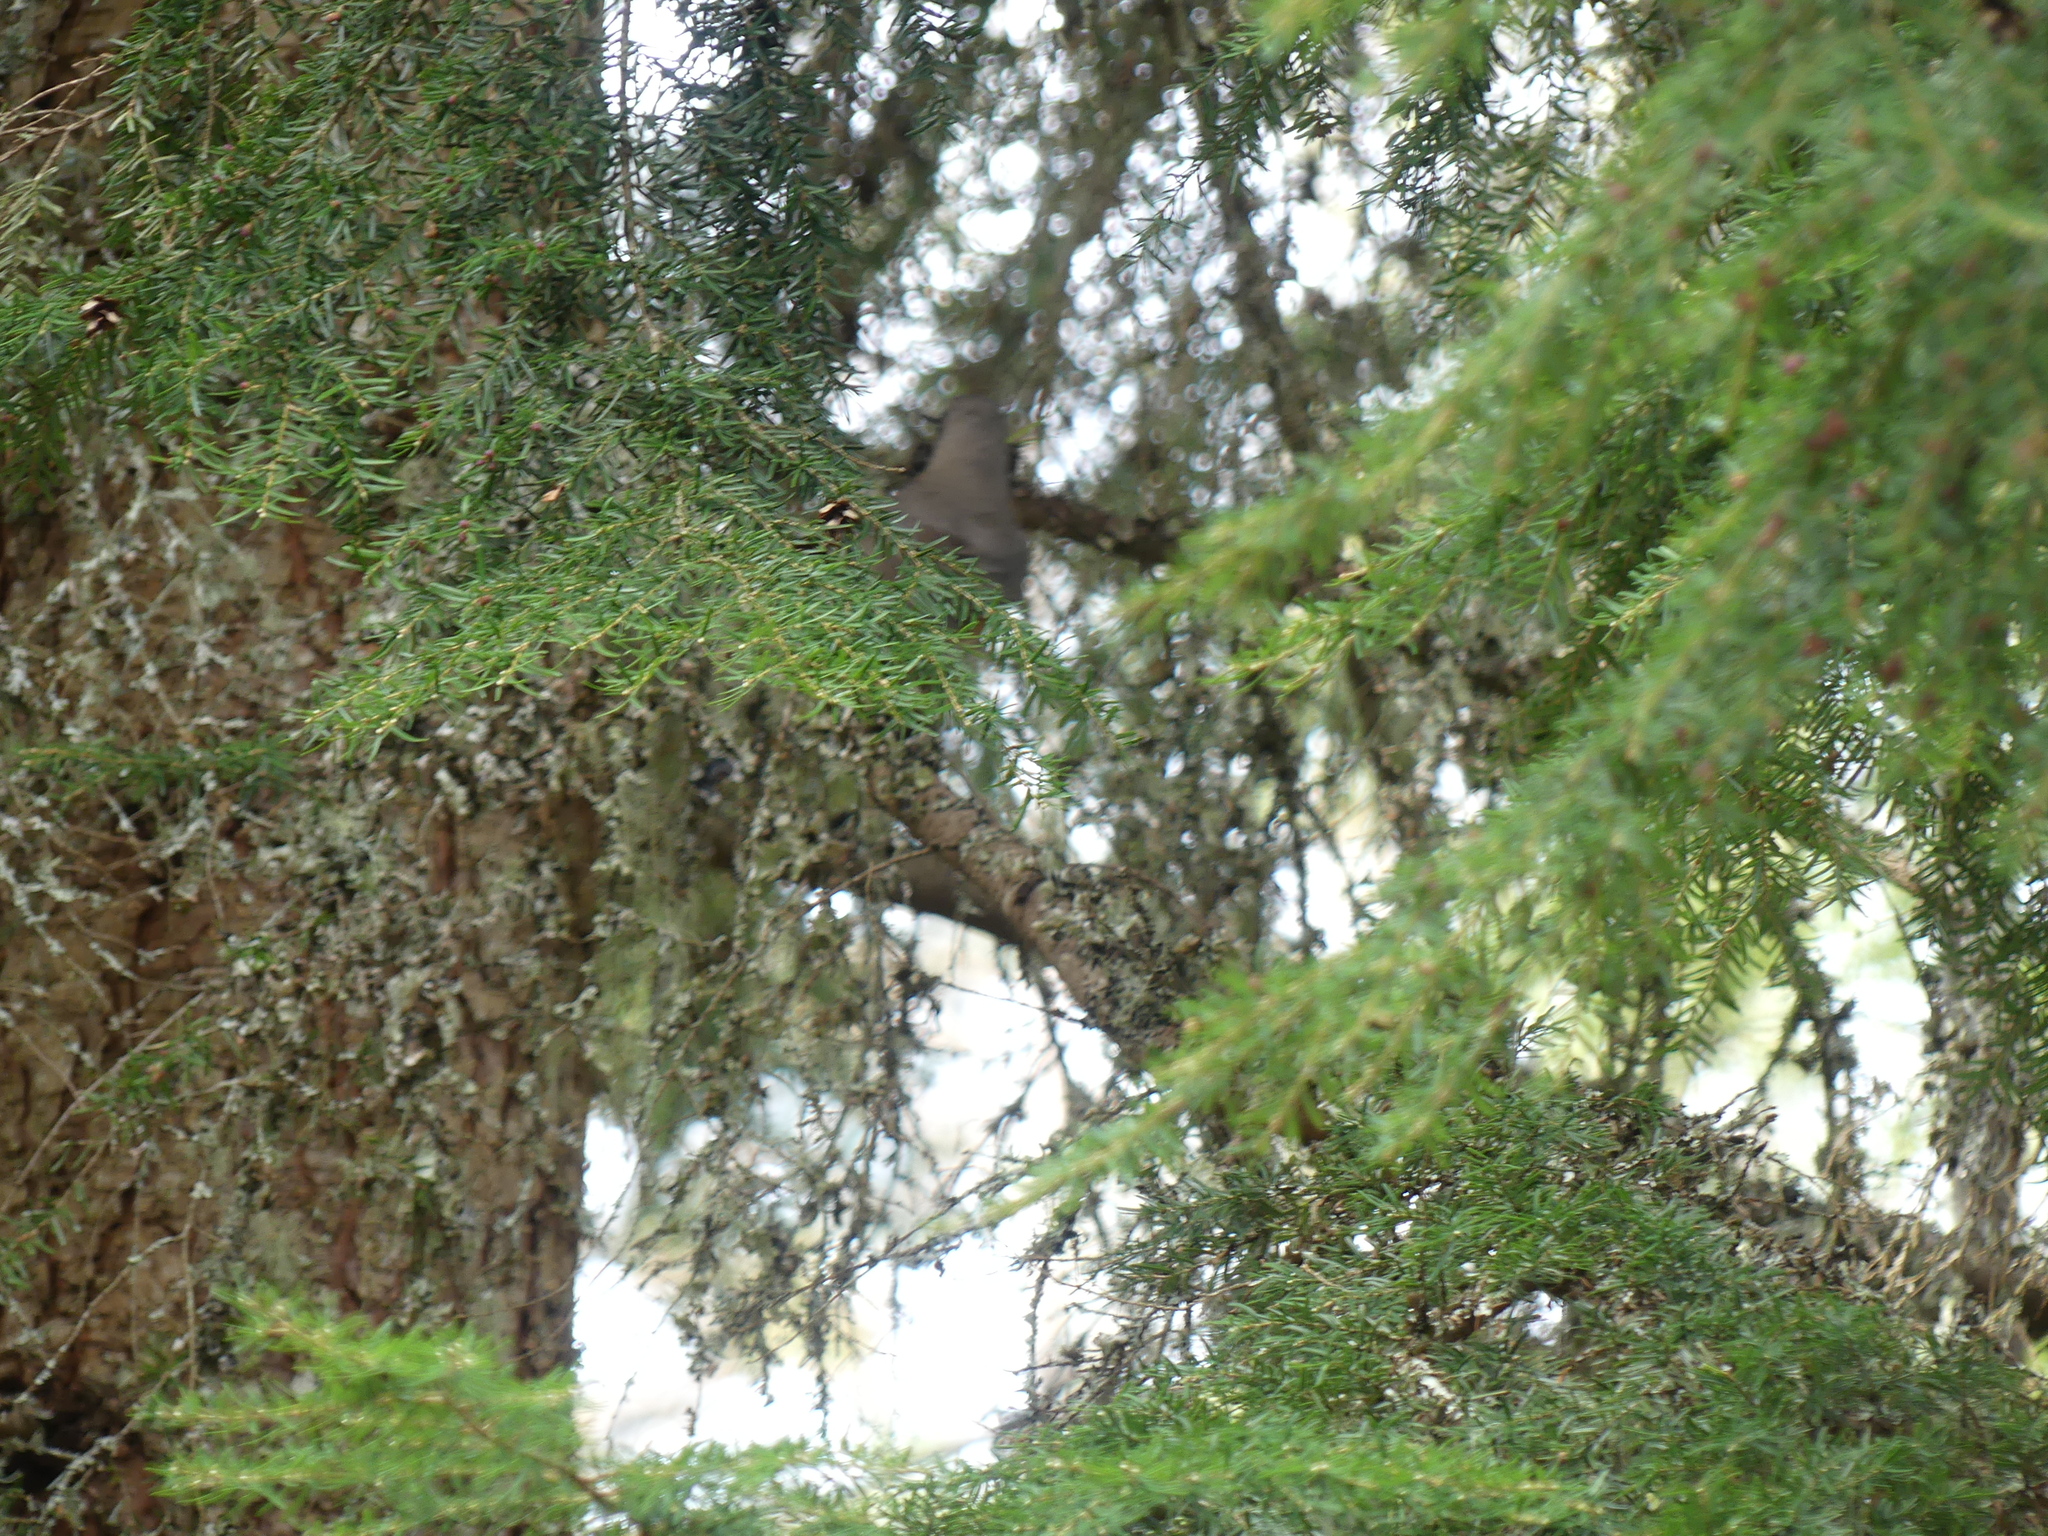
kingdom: Plantae
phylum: Tracheophyta
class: Pinopsida
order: Pinales
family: Pinaceae
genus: Tsuga
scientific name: Tsuga heterophylla
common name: Western hemlock
